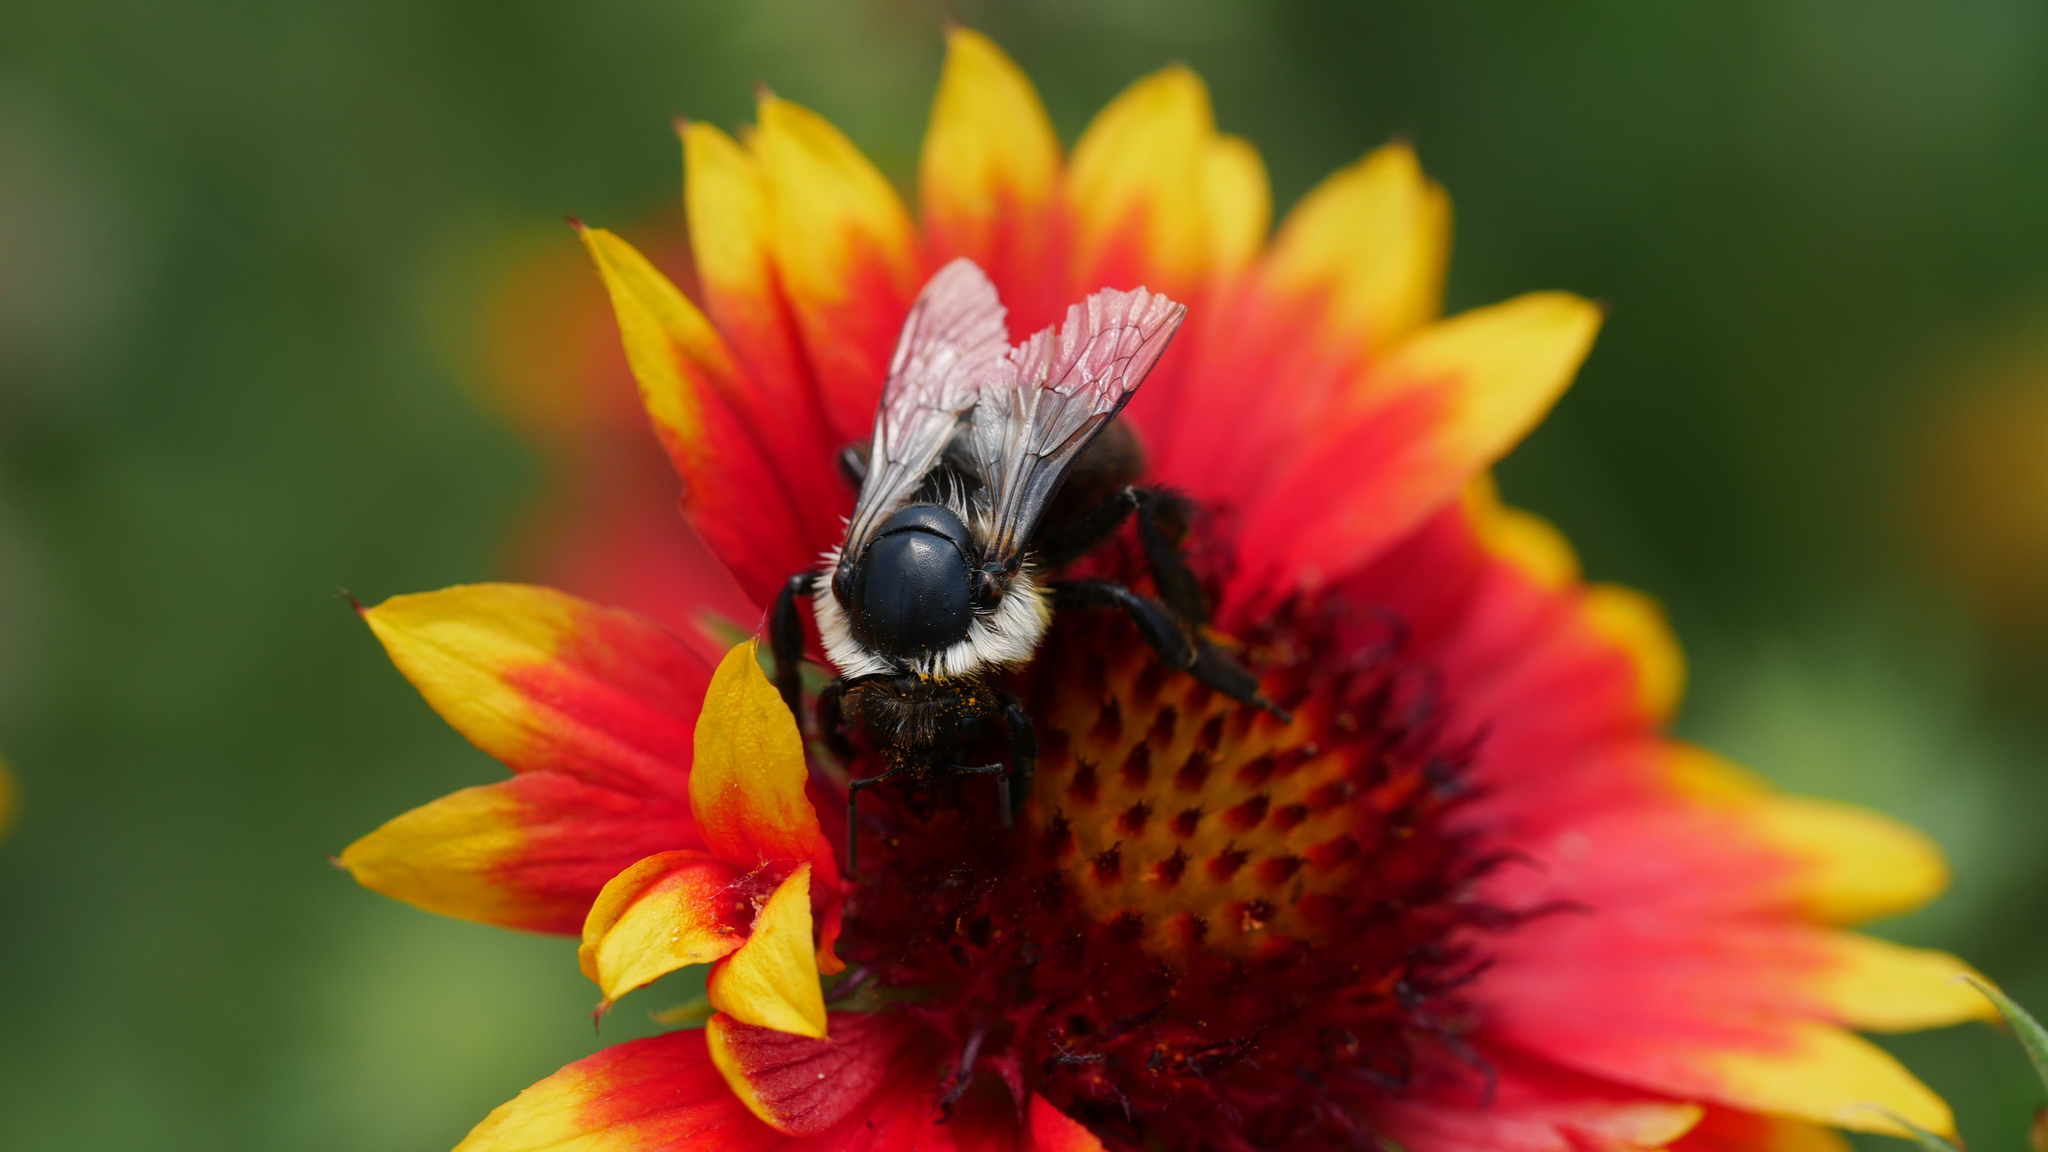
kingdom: Animalia
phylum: Arthropoda
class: Insecta
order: Hymenoptera
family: Apidae
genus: Bombus
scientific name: Bombus impatiens
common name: Common eastern bumble bee
